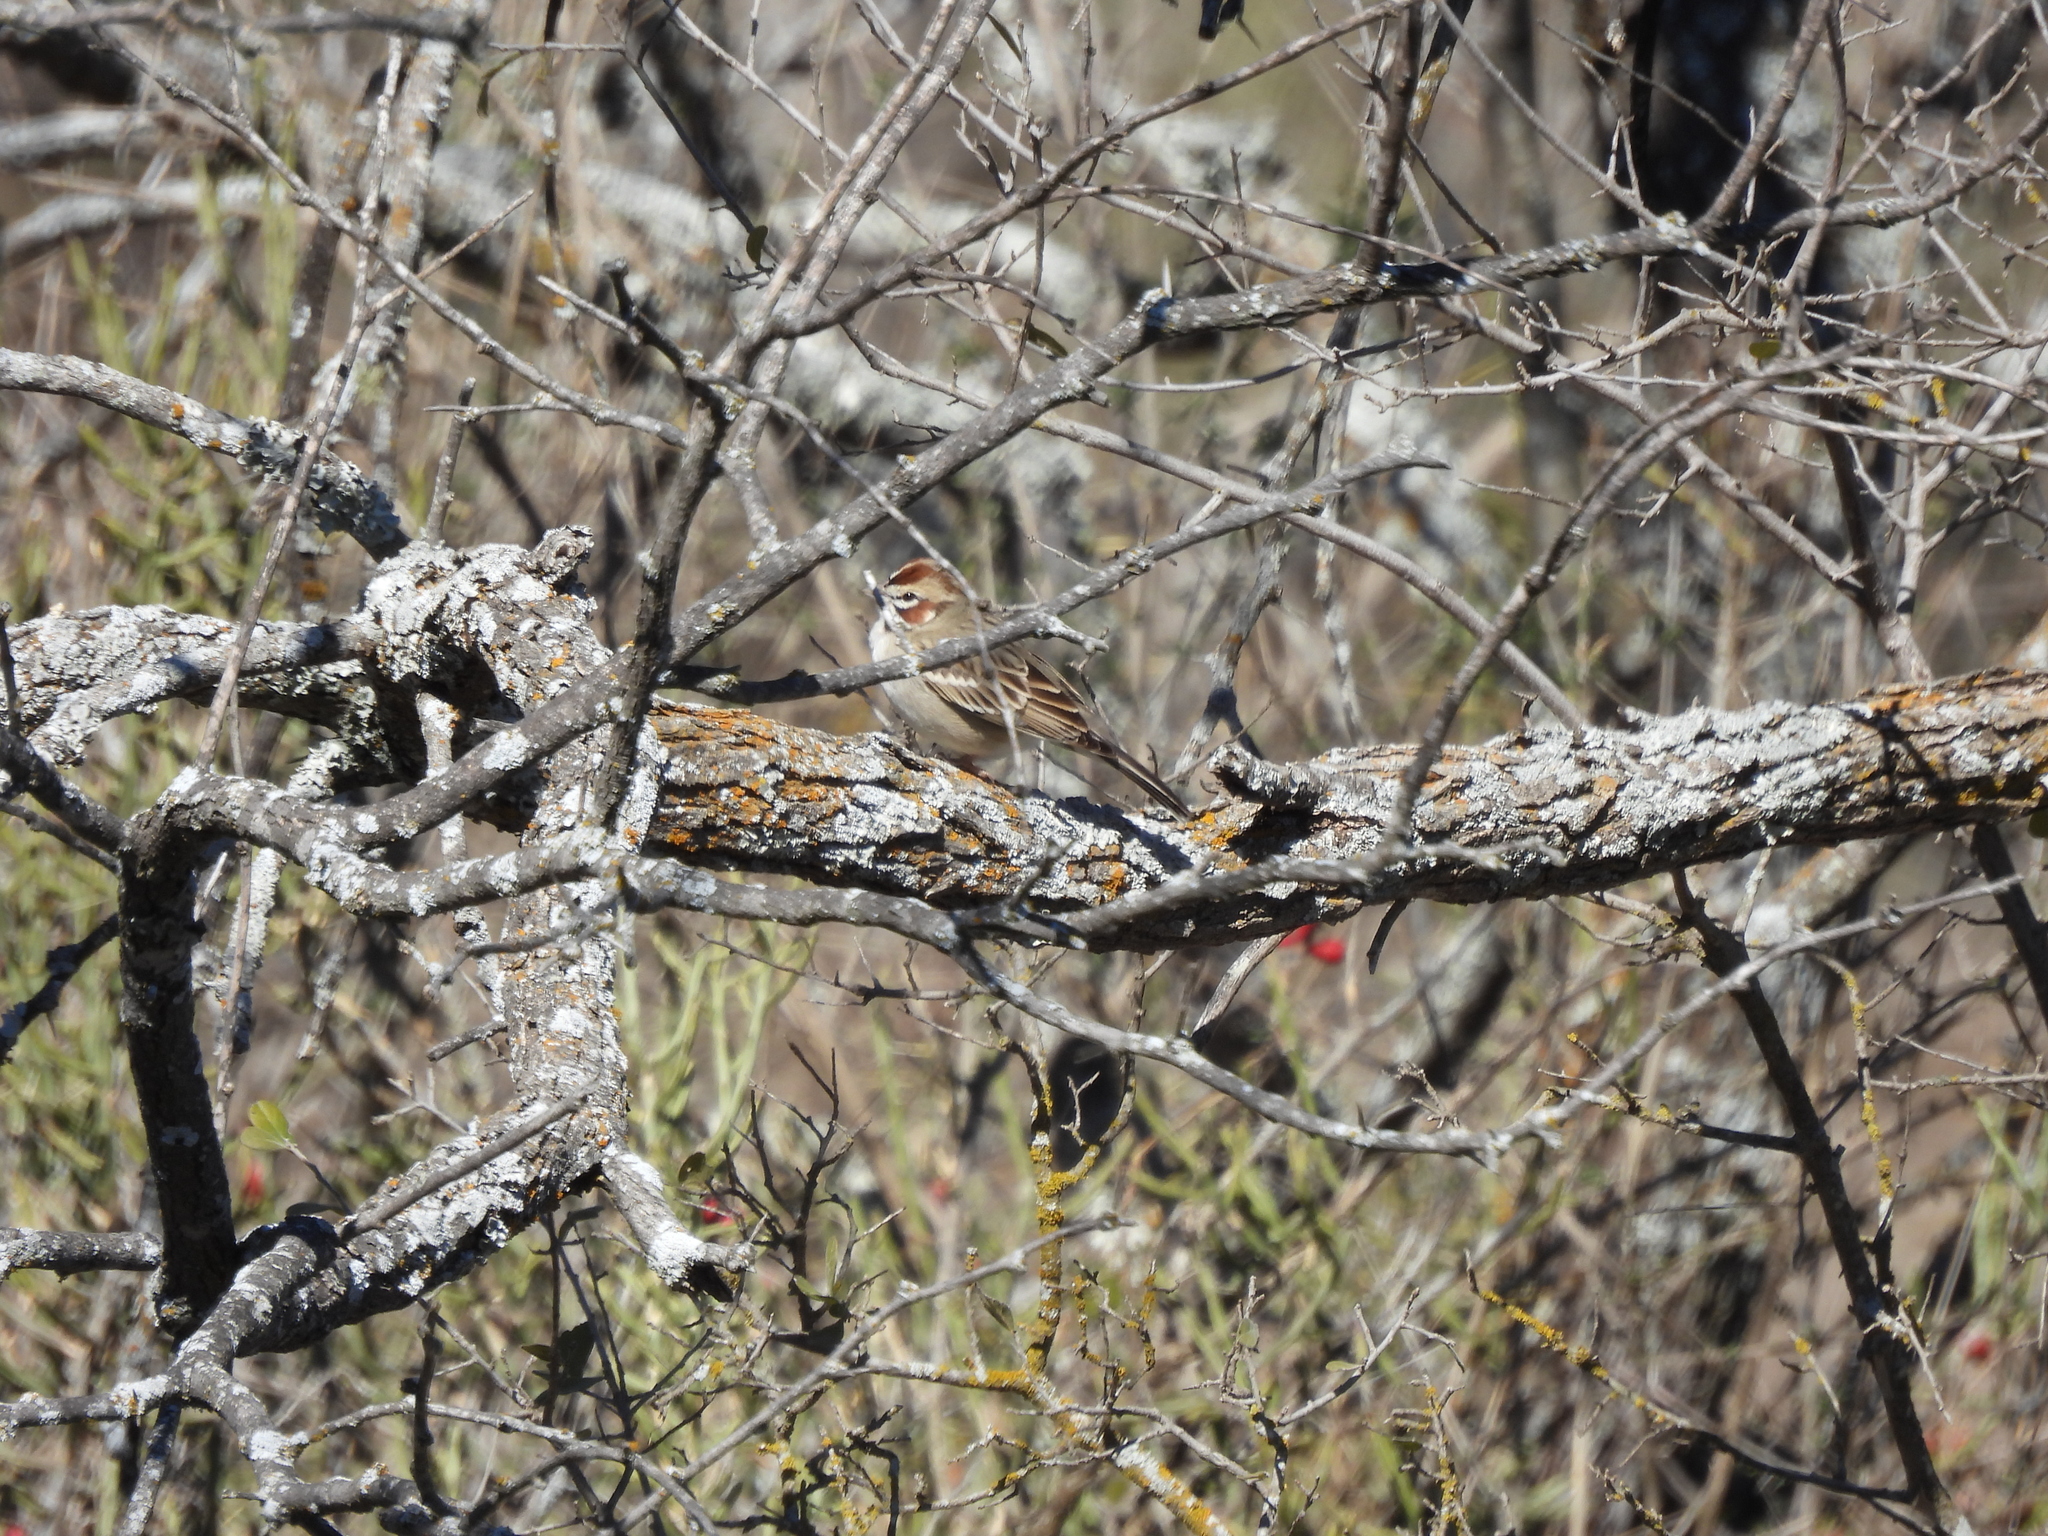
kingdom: Animalia
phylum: Chordata
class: Aves
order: Passeriformes
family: Passerellidae
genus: Chondestes
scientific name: Chondestes grammacus
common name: Lark sparrow
